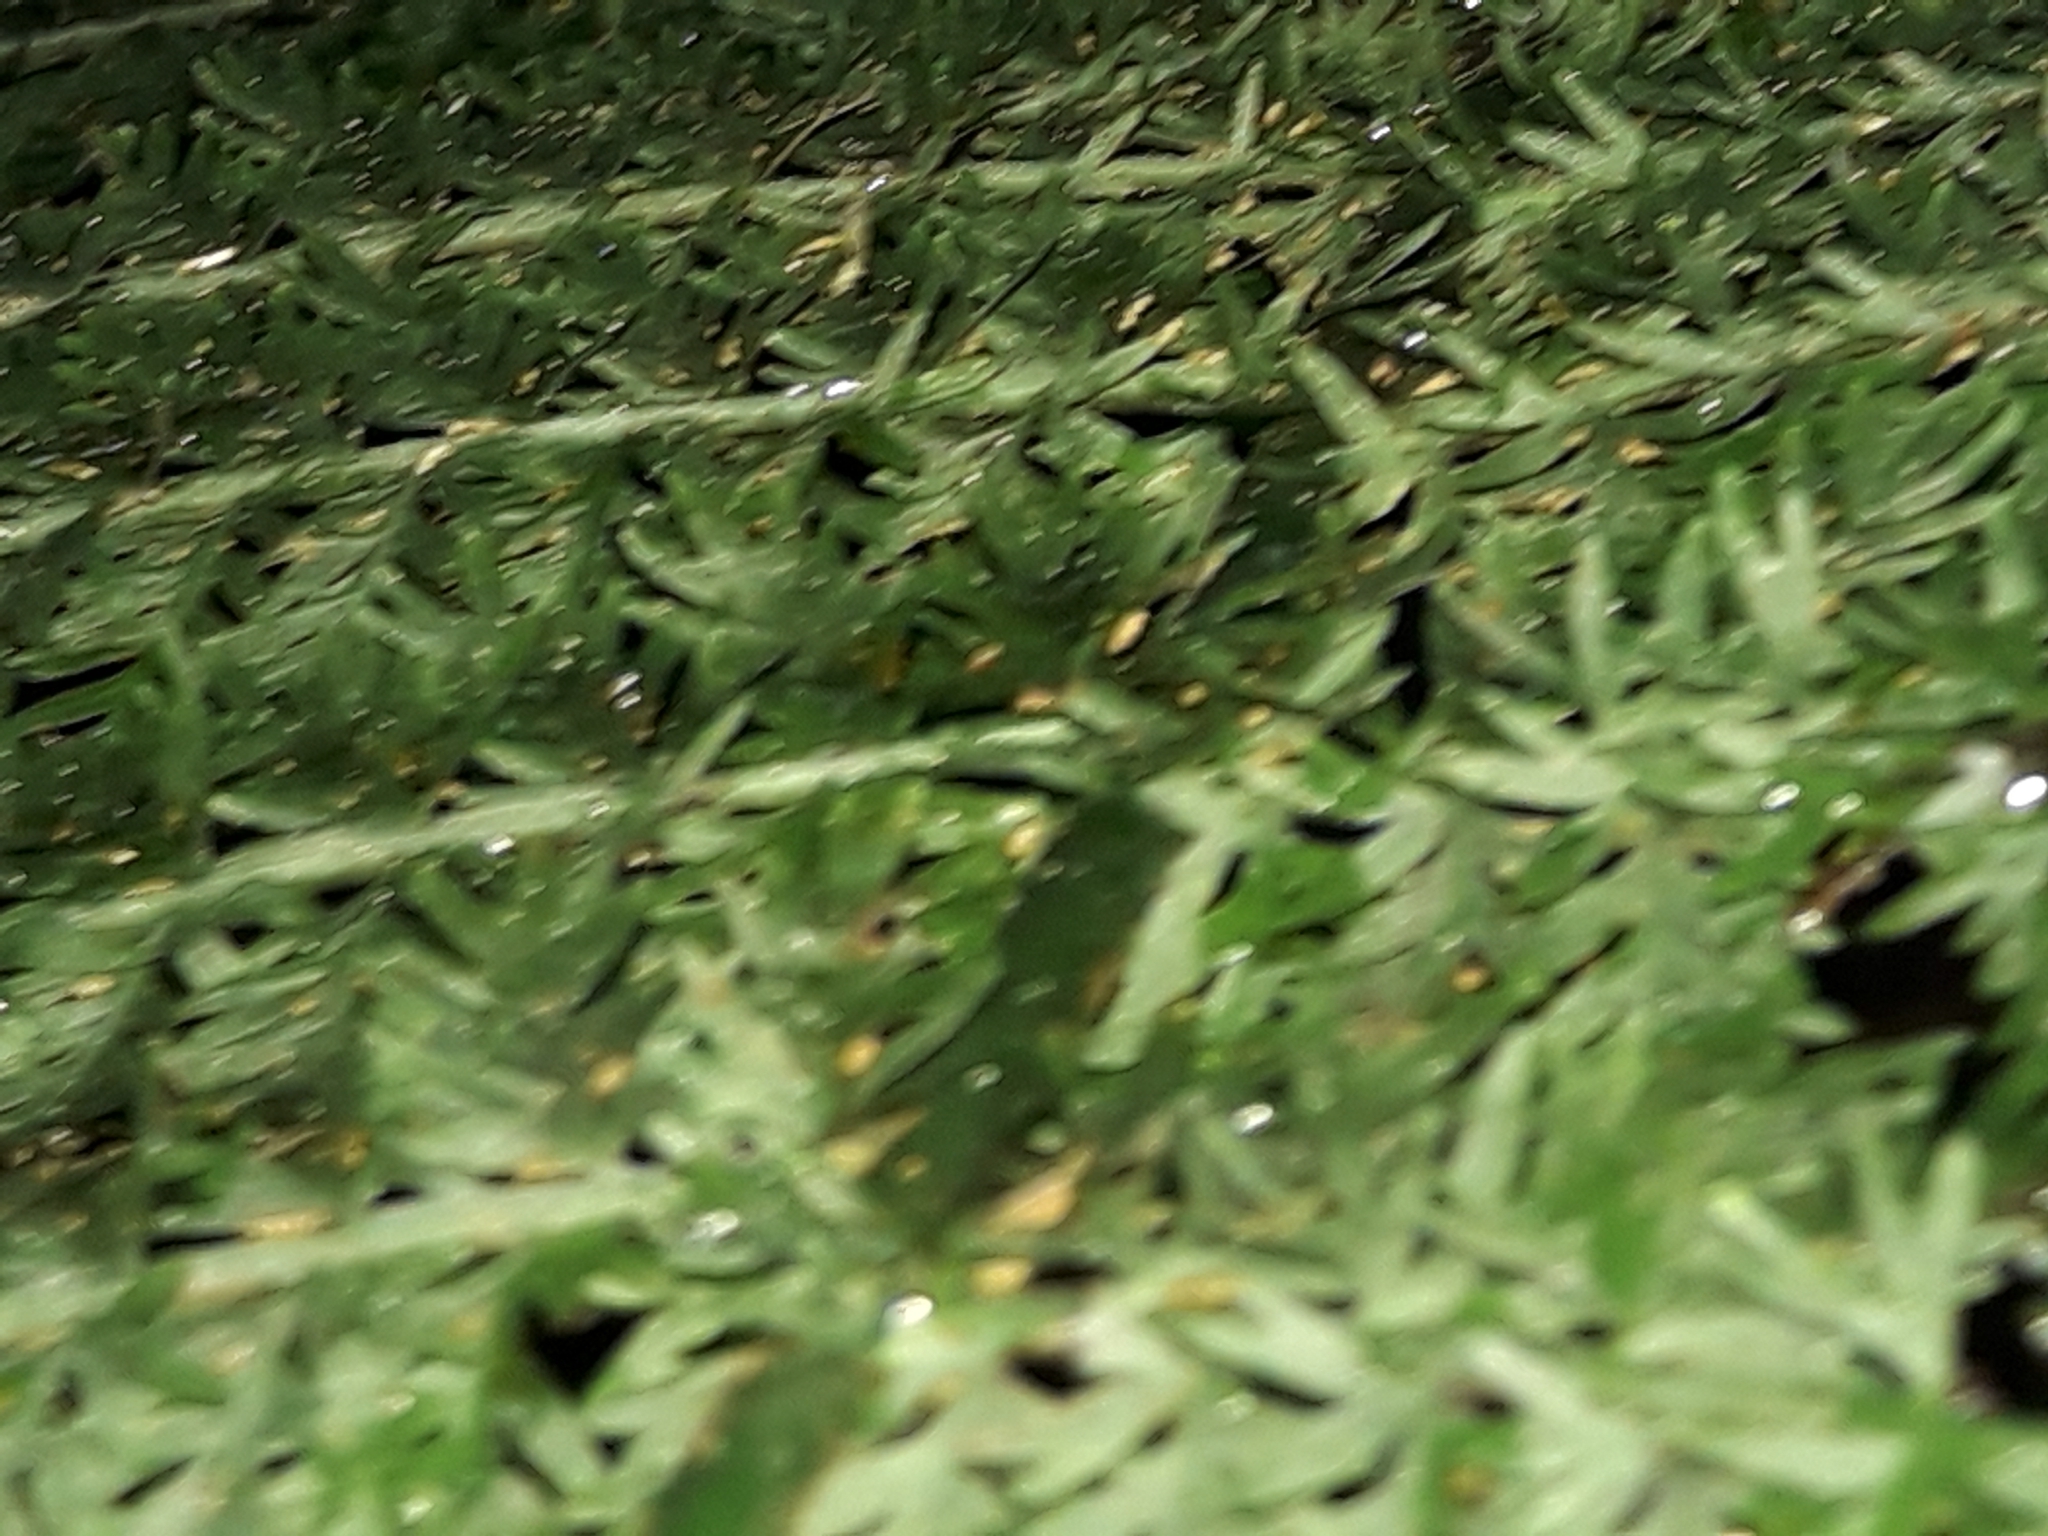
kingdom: Plantae
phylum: Tracheophyta
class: Polypodiopsida
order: Osmundales
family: Osmundaceae
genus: Leptopteris
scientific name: Leptopteris intermedia
